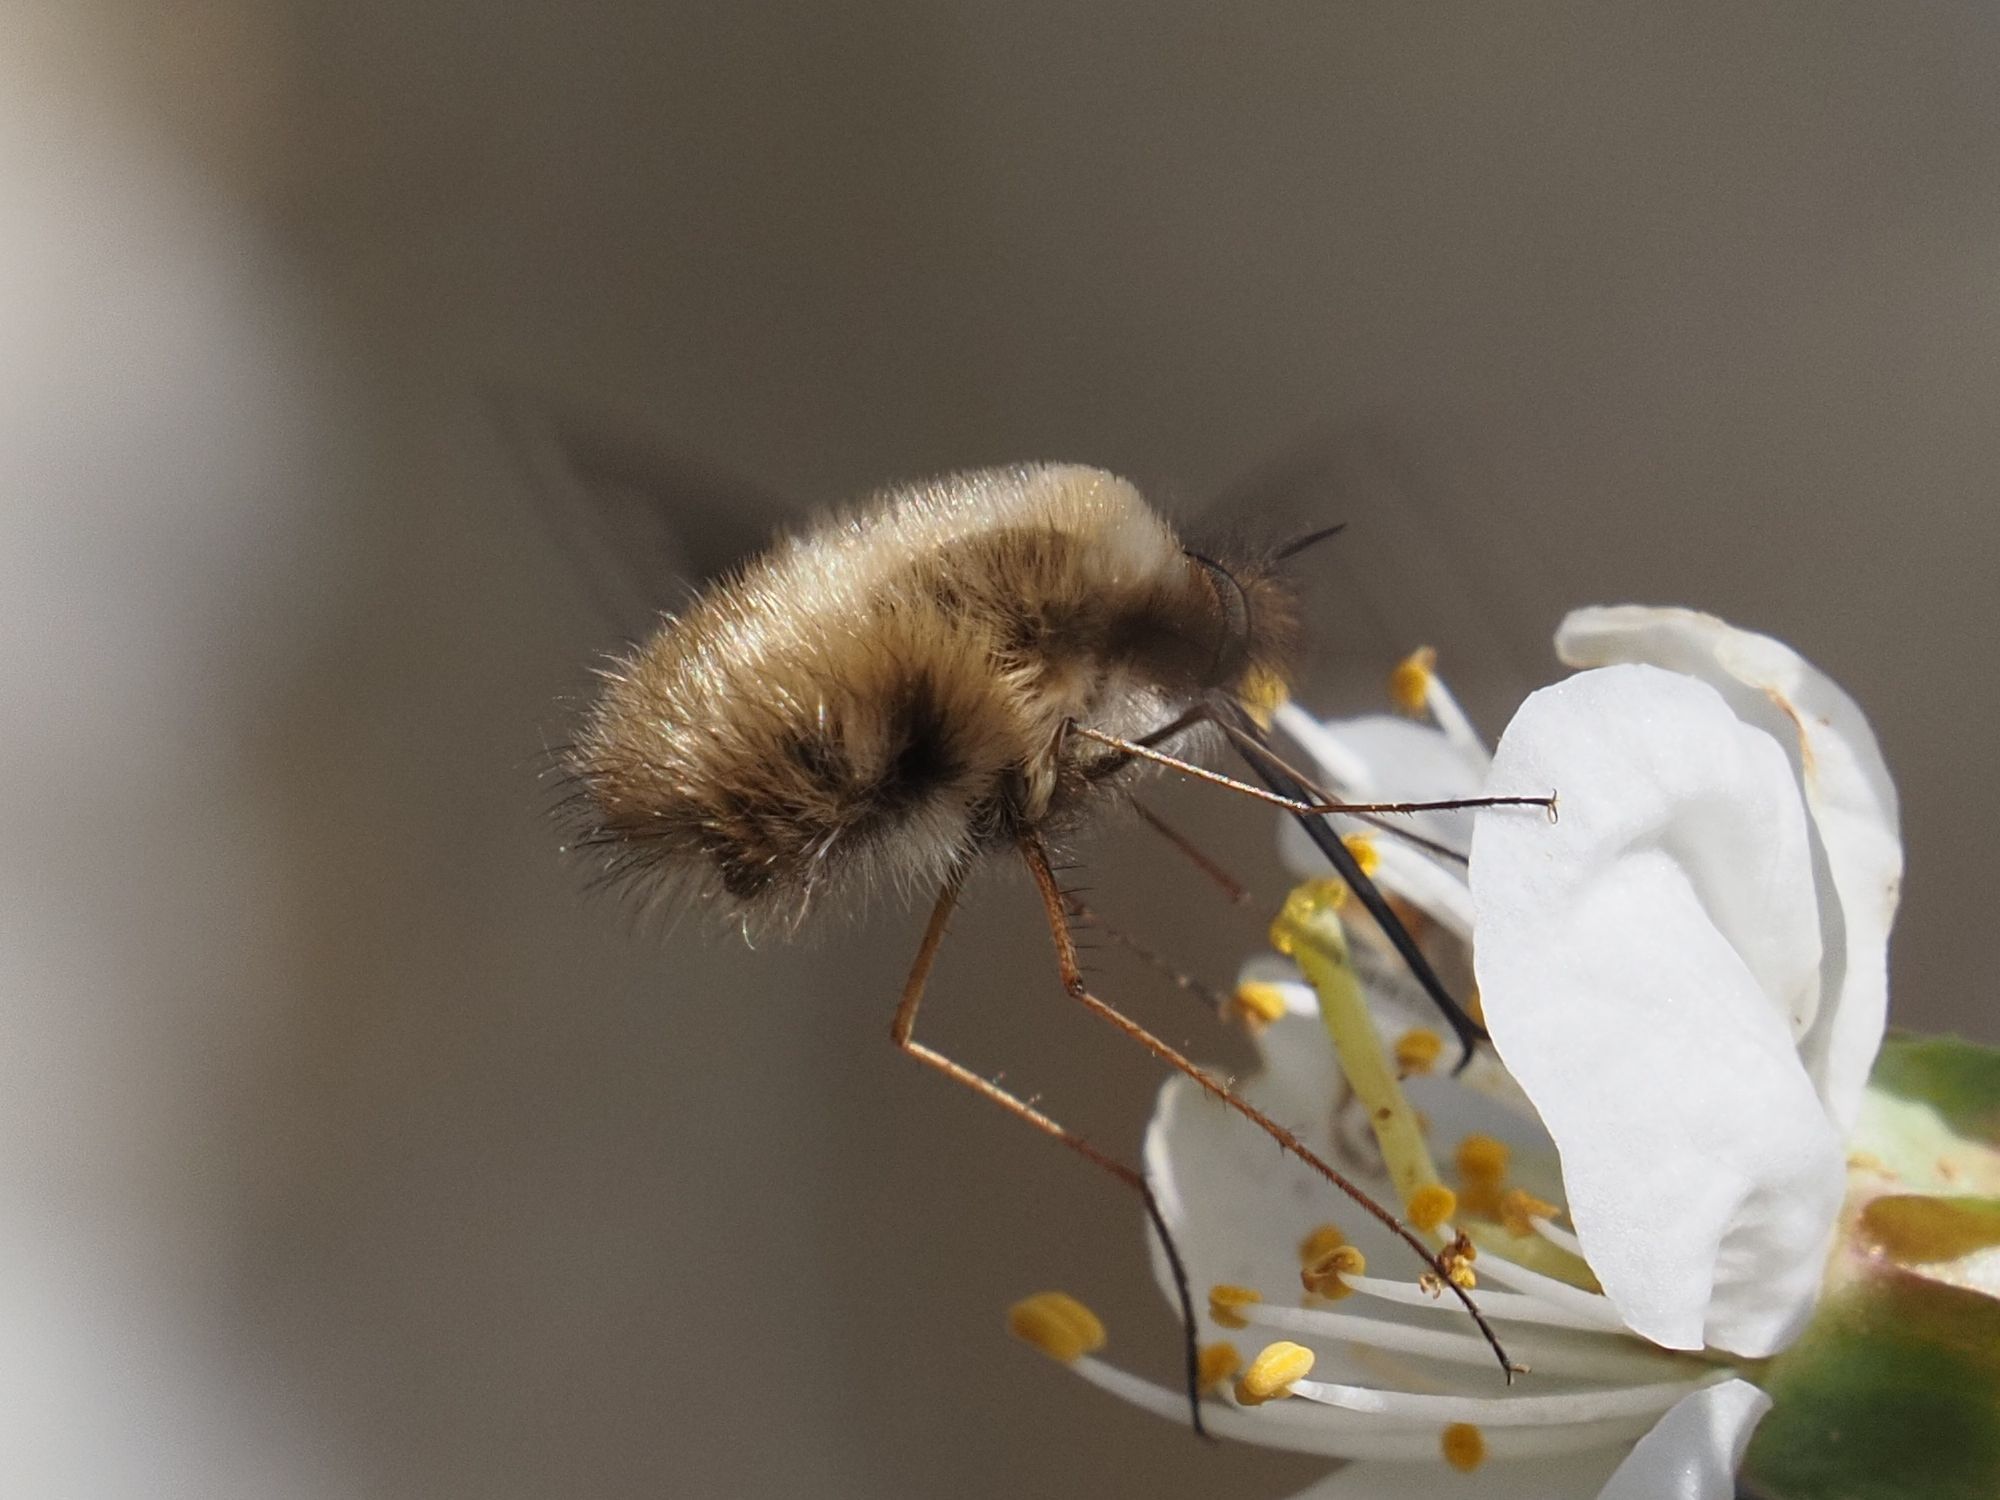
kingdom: Animalia
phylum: Arthropoda
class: Insecta
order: Diptera
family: Bombyliidae
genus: Bombylius
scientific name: Bombylius major
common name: Bee fly
